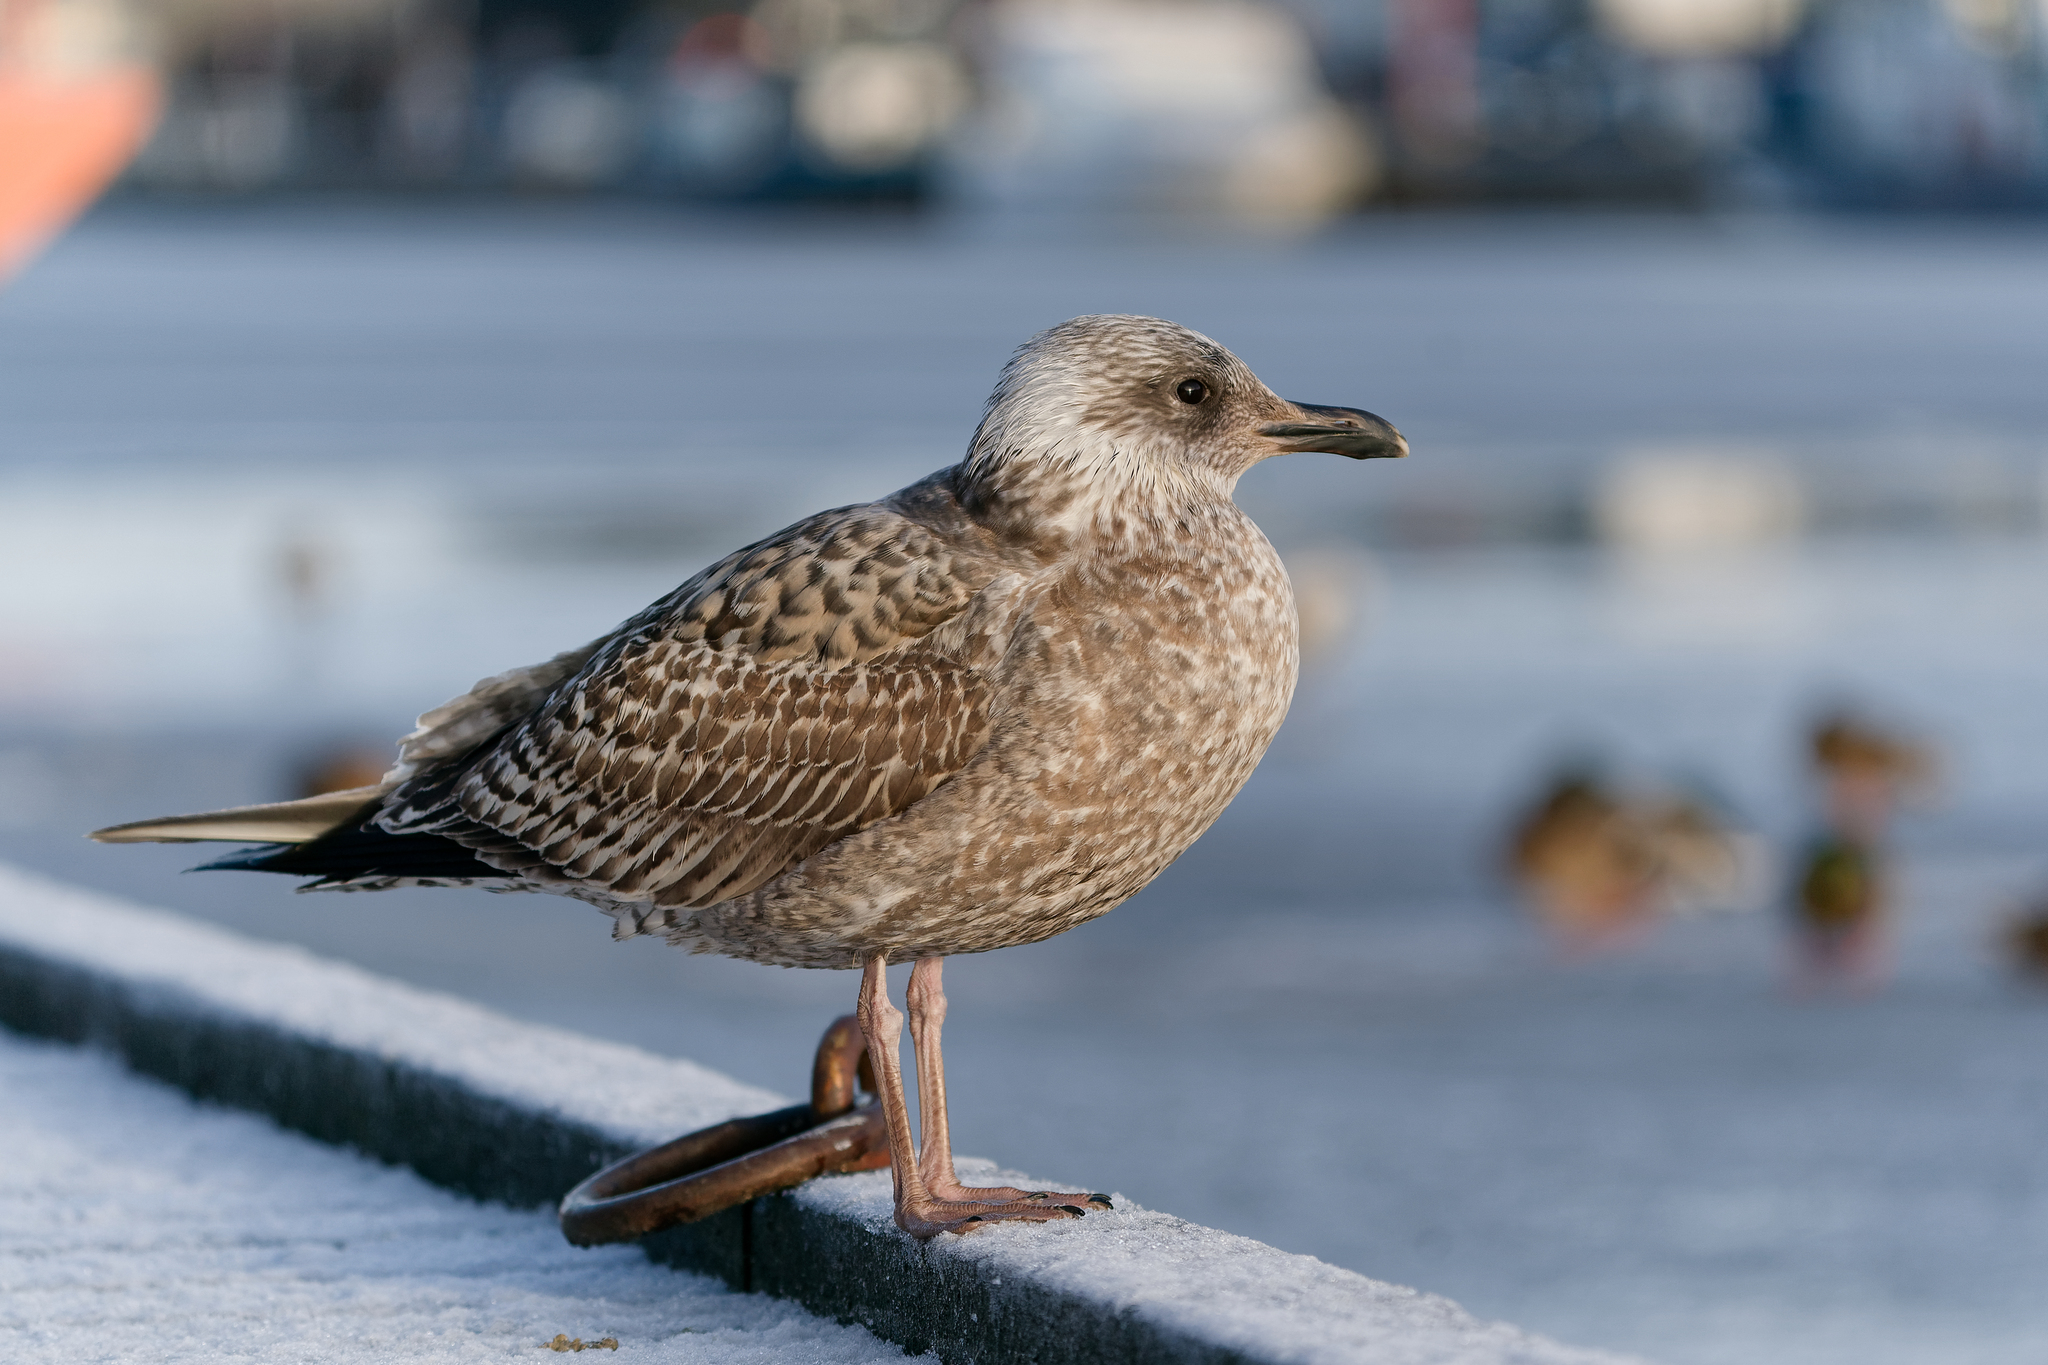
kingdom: Animalia
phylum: Chordata
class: Aves
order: Charadriiformes
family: Laridae
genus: Larus
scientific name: Larus argentatus
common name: Herring gull
